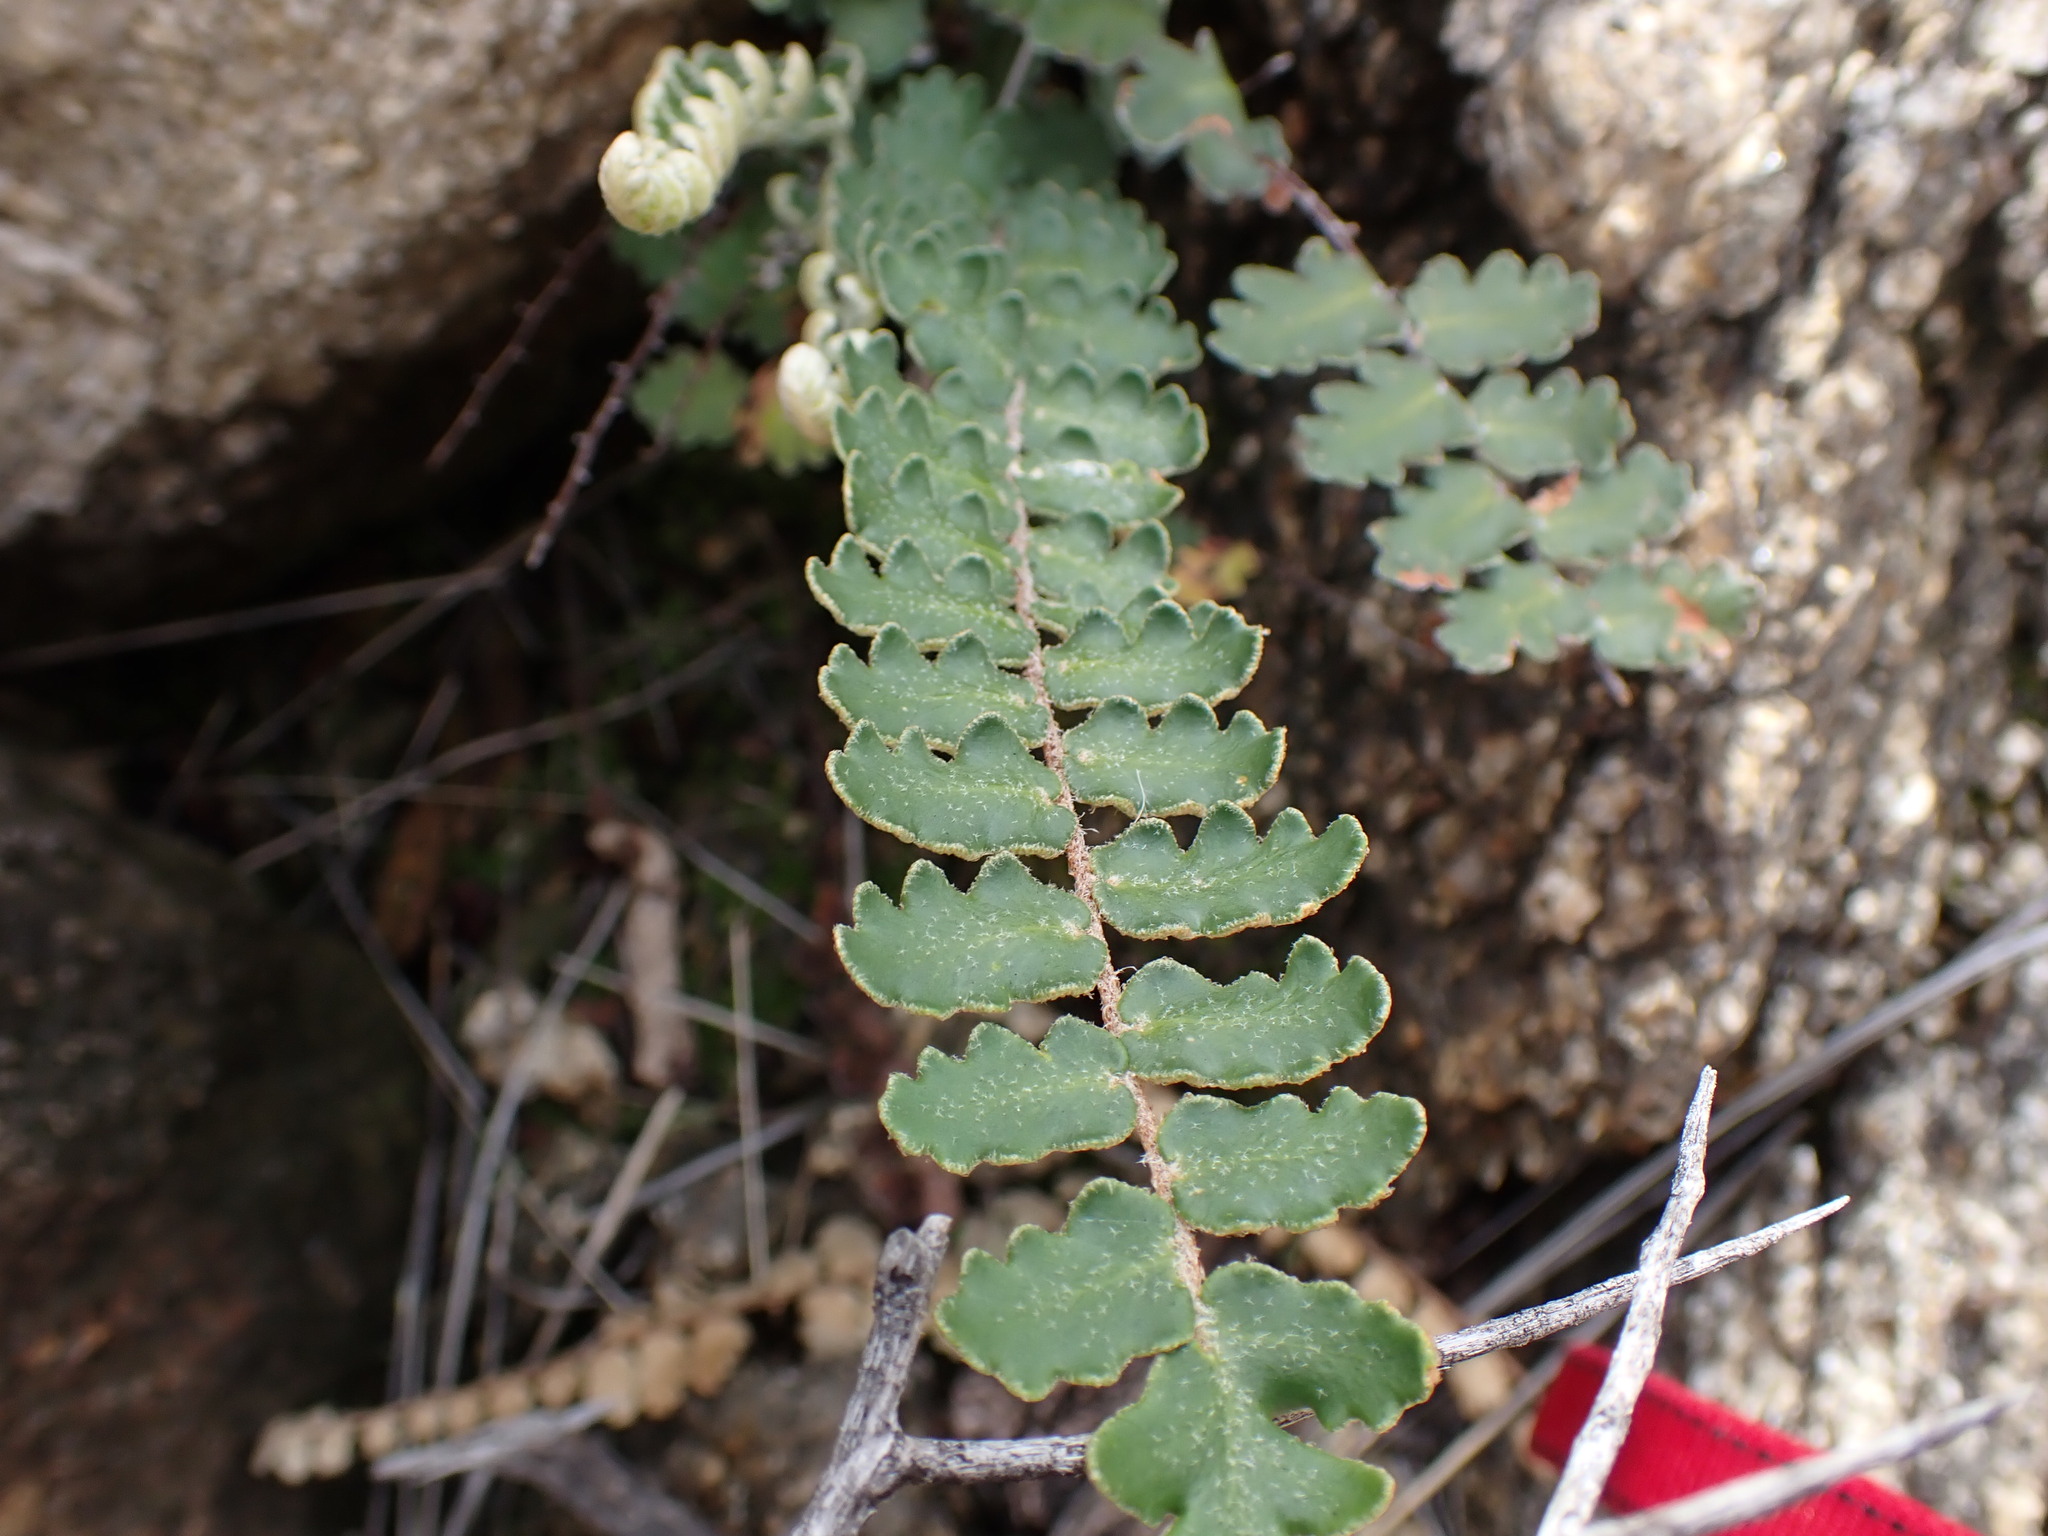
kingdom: Plantae
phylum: Tracheophyta
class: Polypodiopsida
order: Polypodiales
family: Pteridaceae
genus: Astrolepis
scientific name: Astrolepis sinuata
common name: Wavy scaly cloakfern
